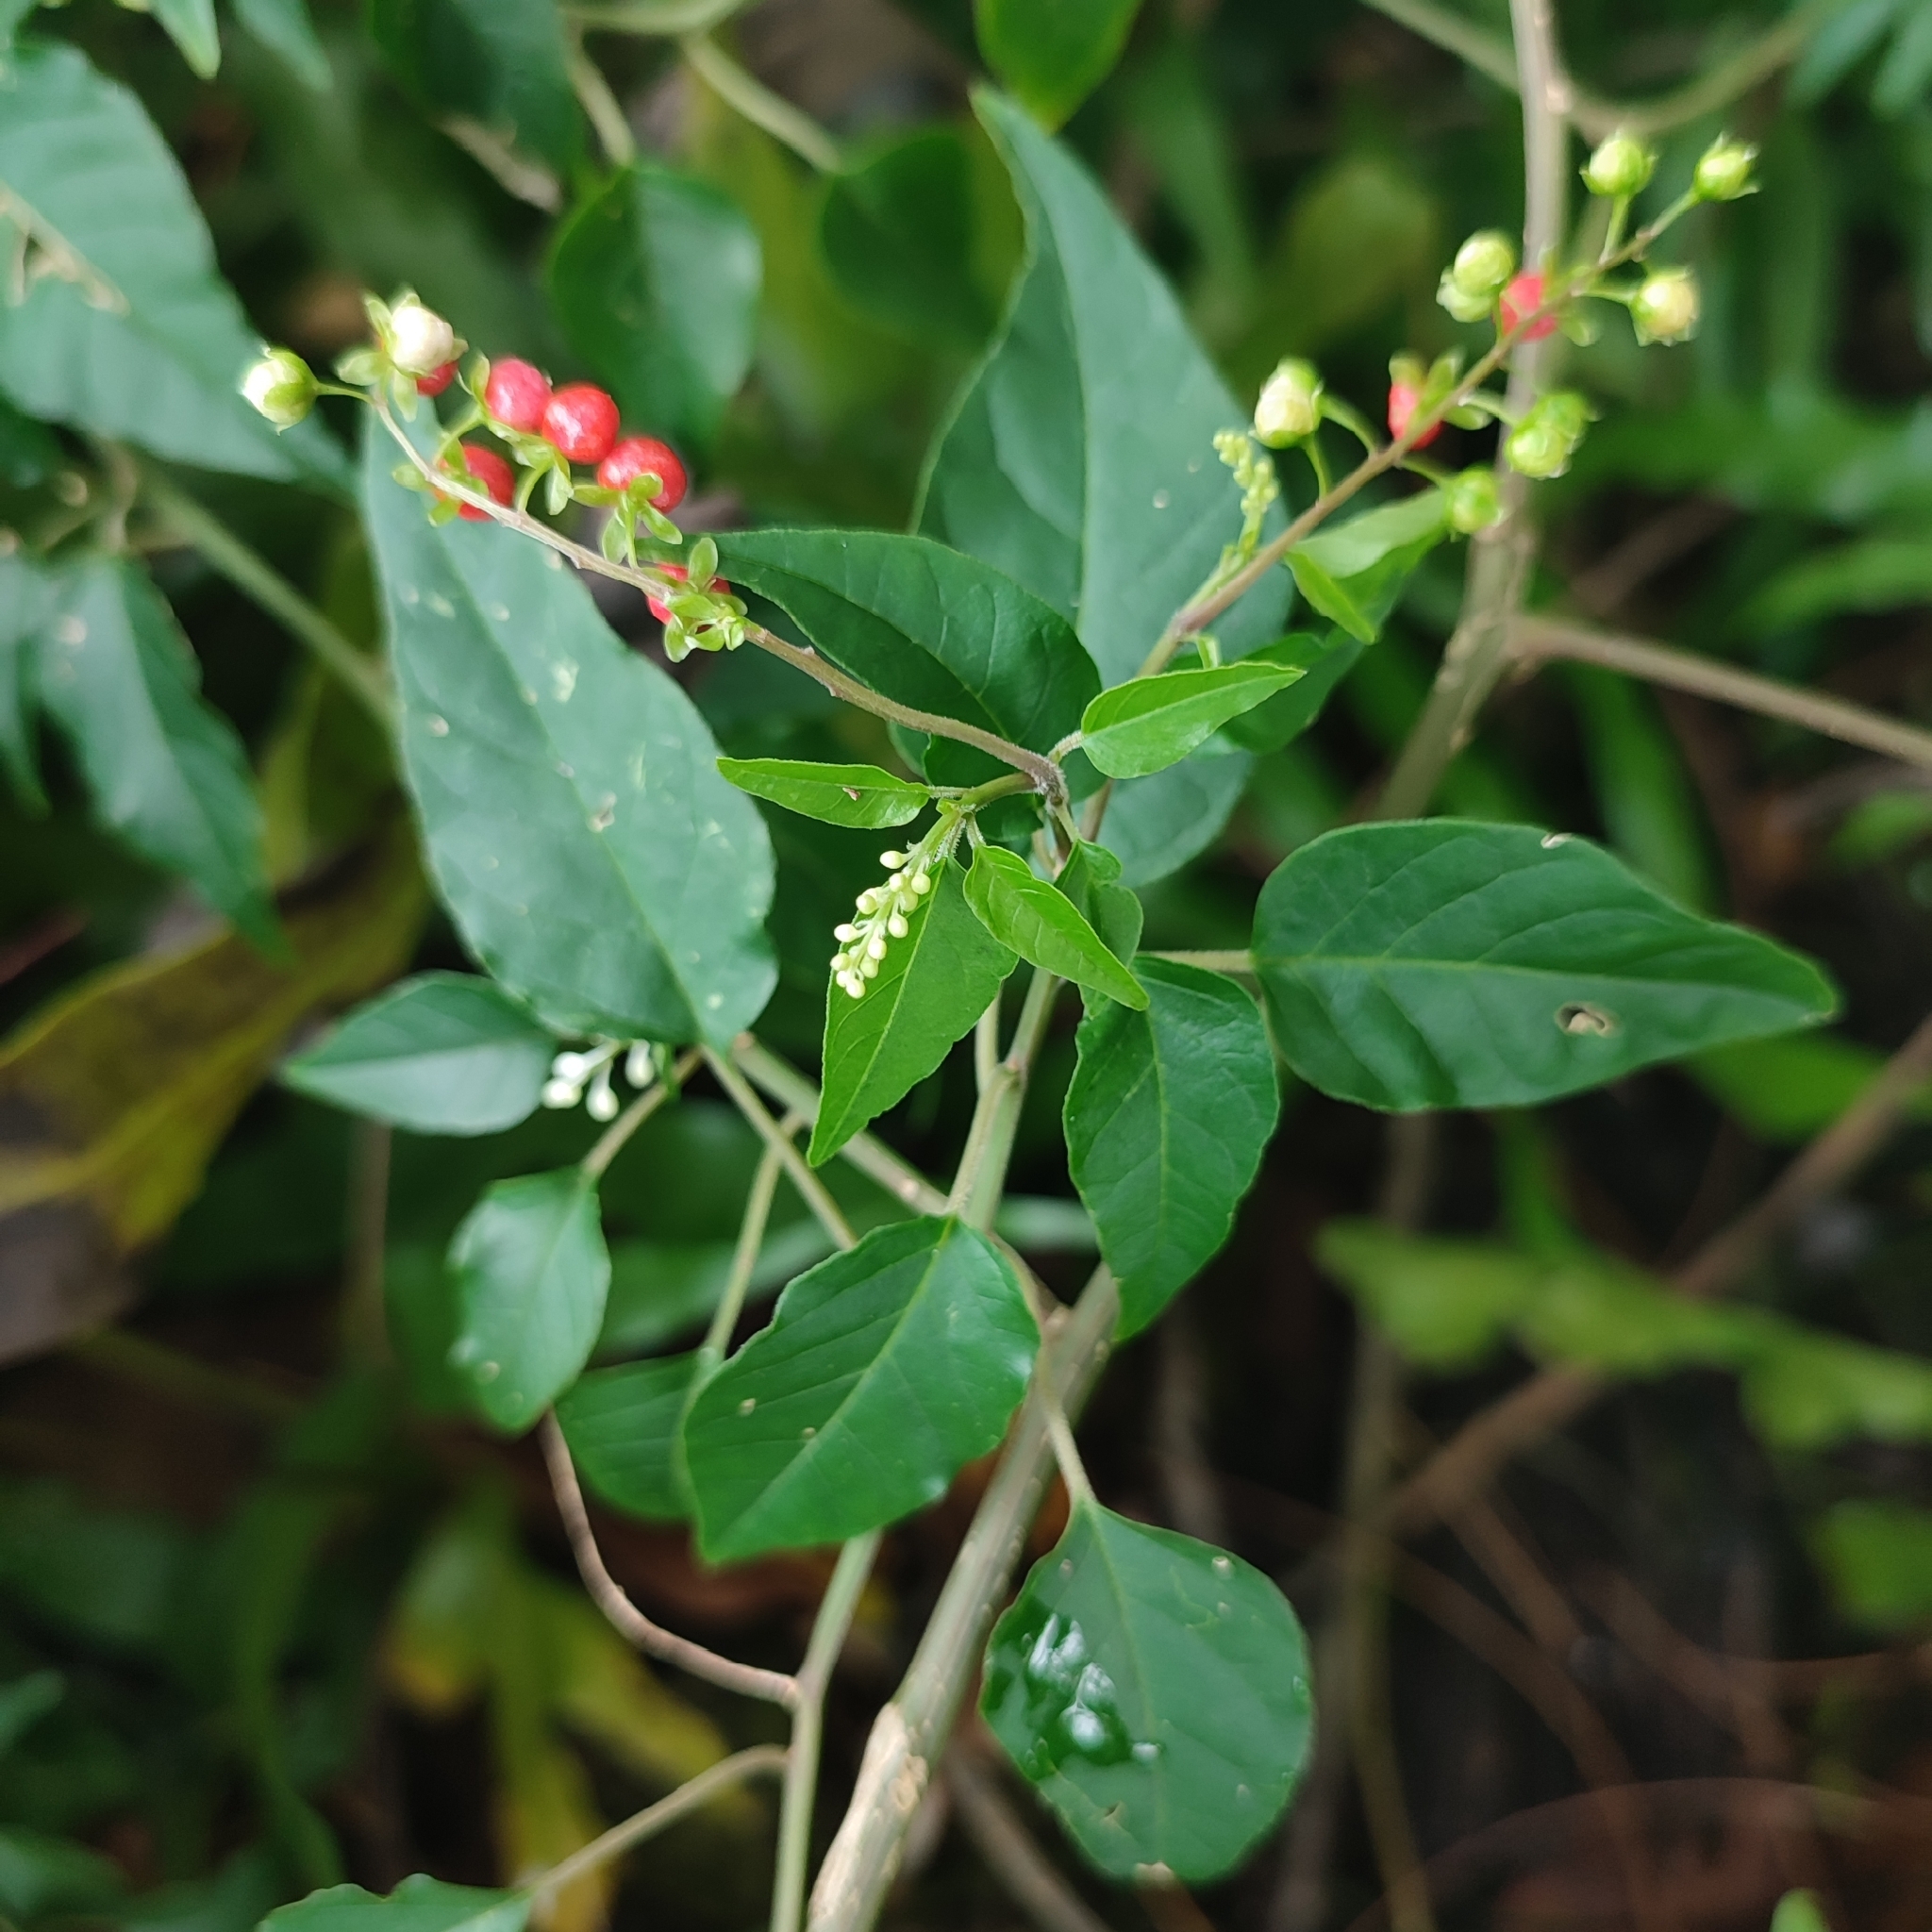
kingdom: Plantae
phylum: Tracheophyta
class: Magnoliopsida
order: Caryophyllales
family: Phytolaccaceae
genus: Rivina
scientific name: Rivina humilis
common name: Rougeplant
